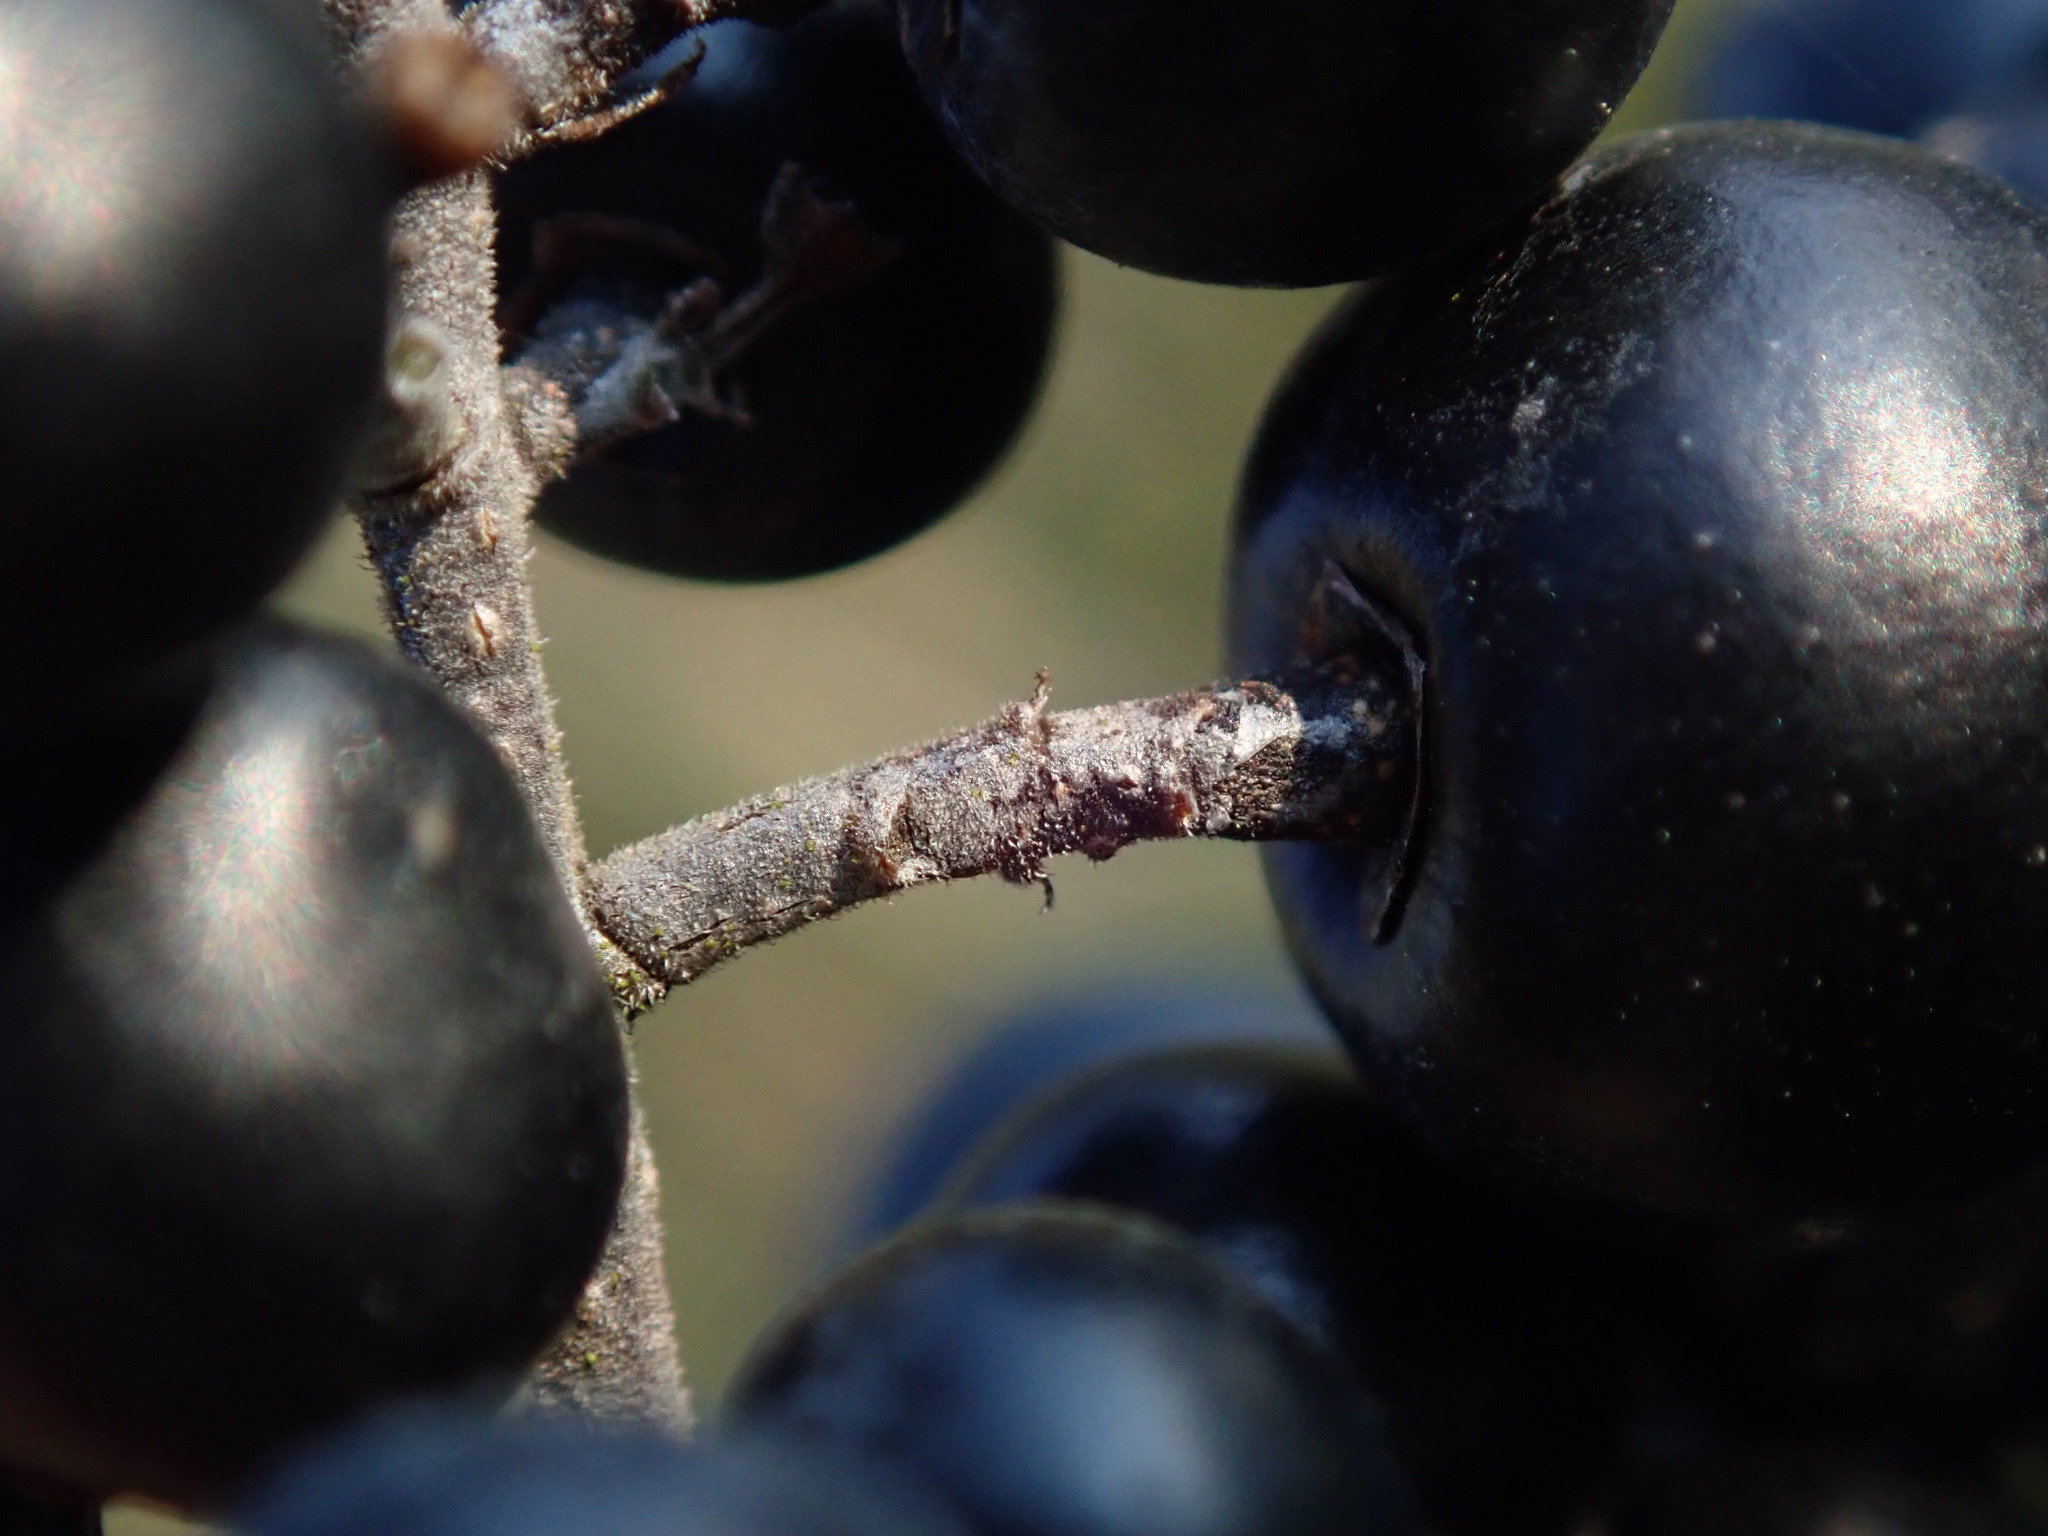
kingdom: Plantae
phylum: Tracheophyta
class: Magnoliopsida
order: Lamiales
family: Oleaceae
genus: Ligustrum
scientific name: Ligustrum vulgare
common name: Wild privet
